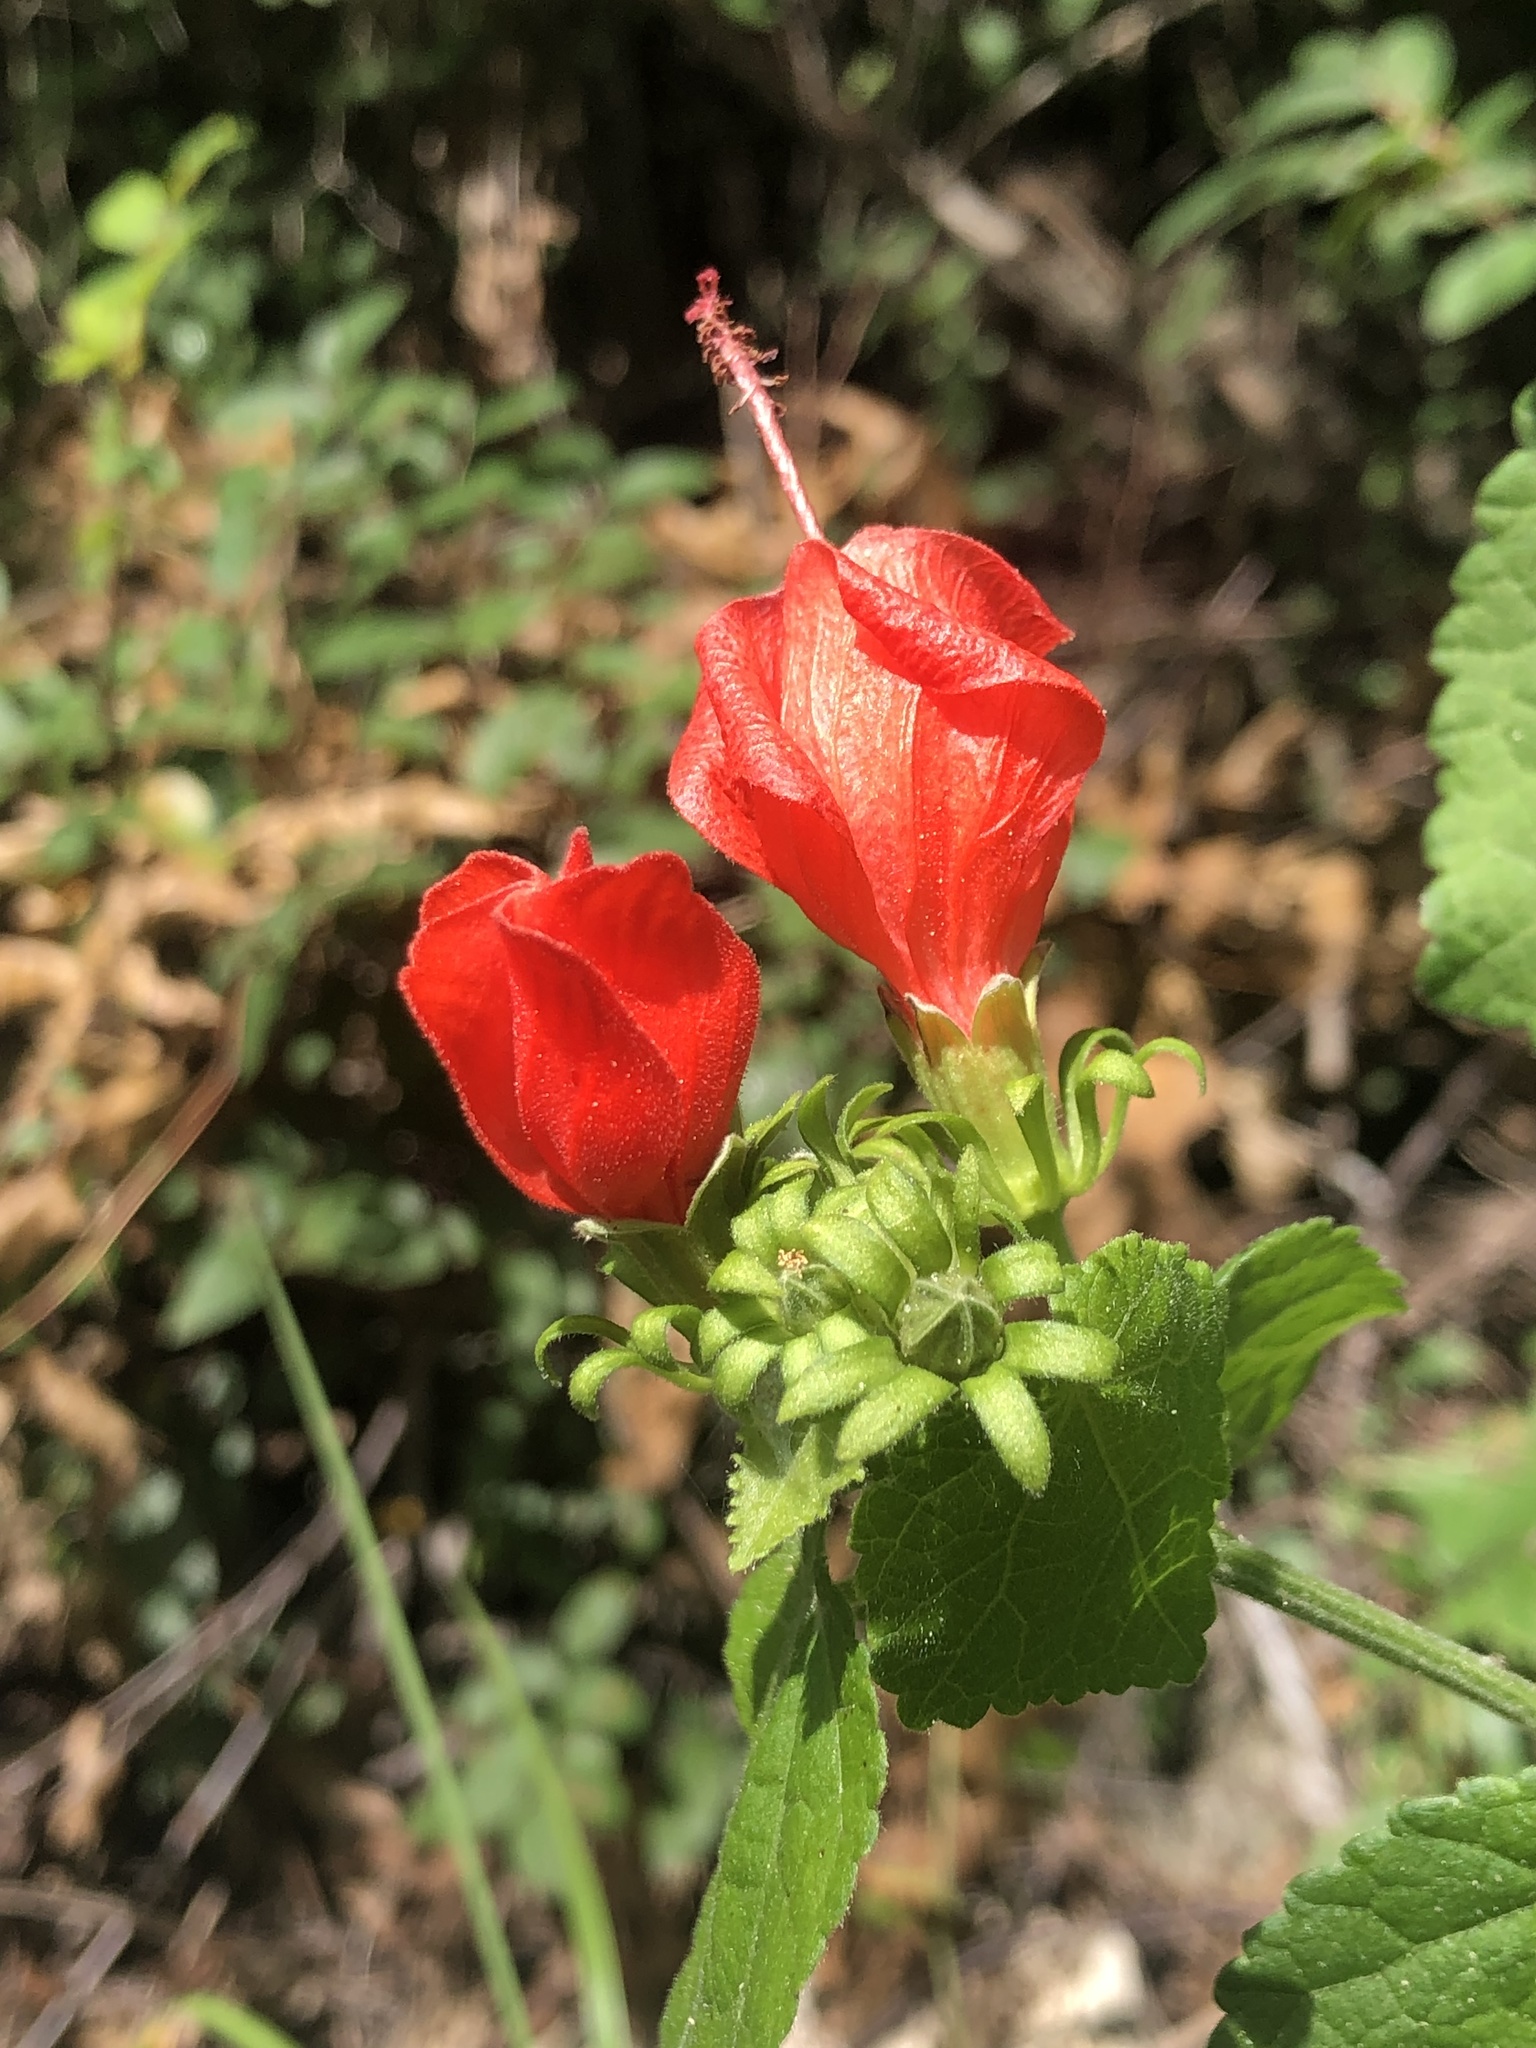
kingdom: Plantae
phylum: Tracheophyta
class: Magnoliopsida
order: Malvales
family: Malvaceae
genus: Malvaviscus
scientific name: Malvaviscus arboreus
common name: Wax mallow
